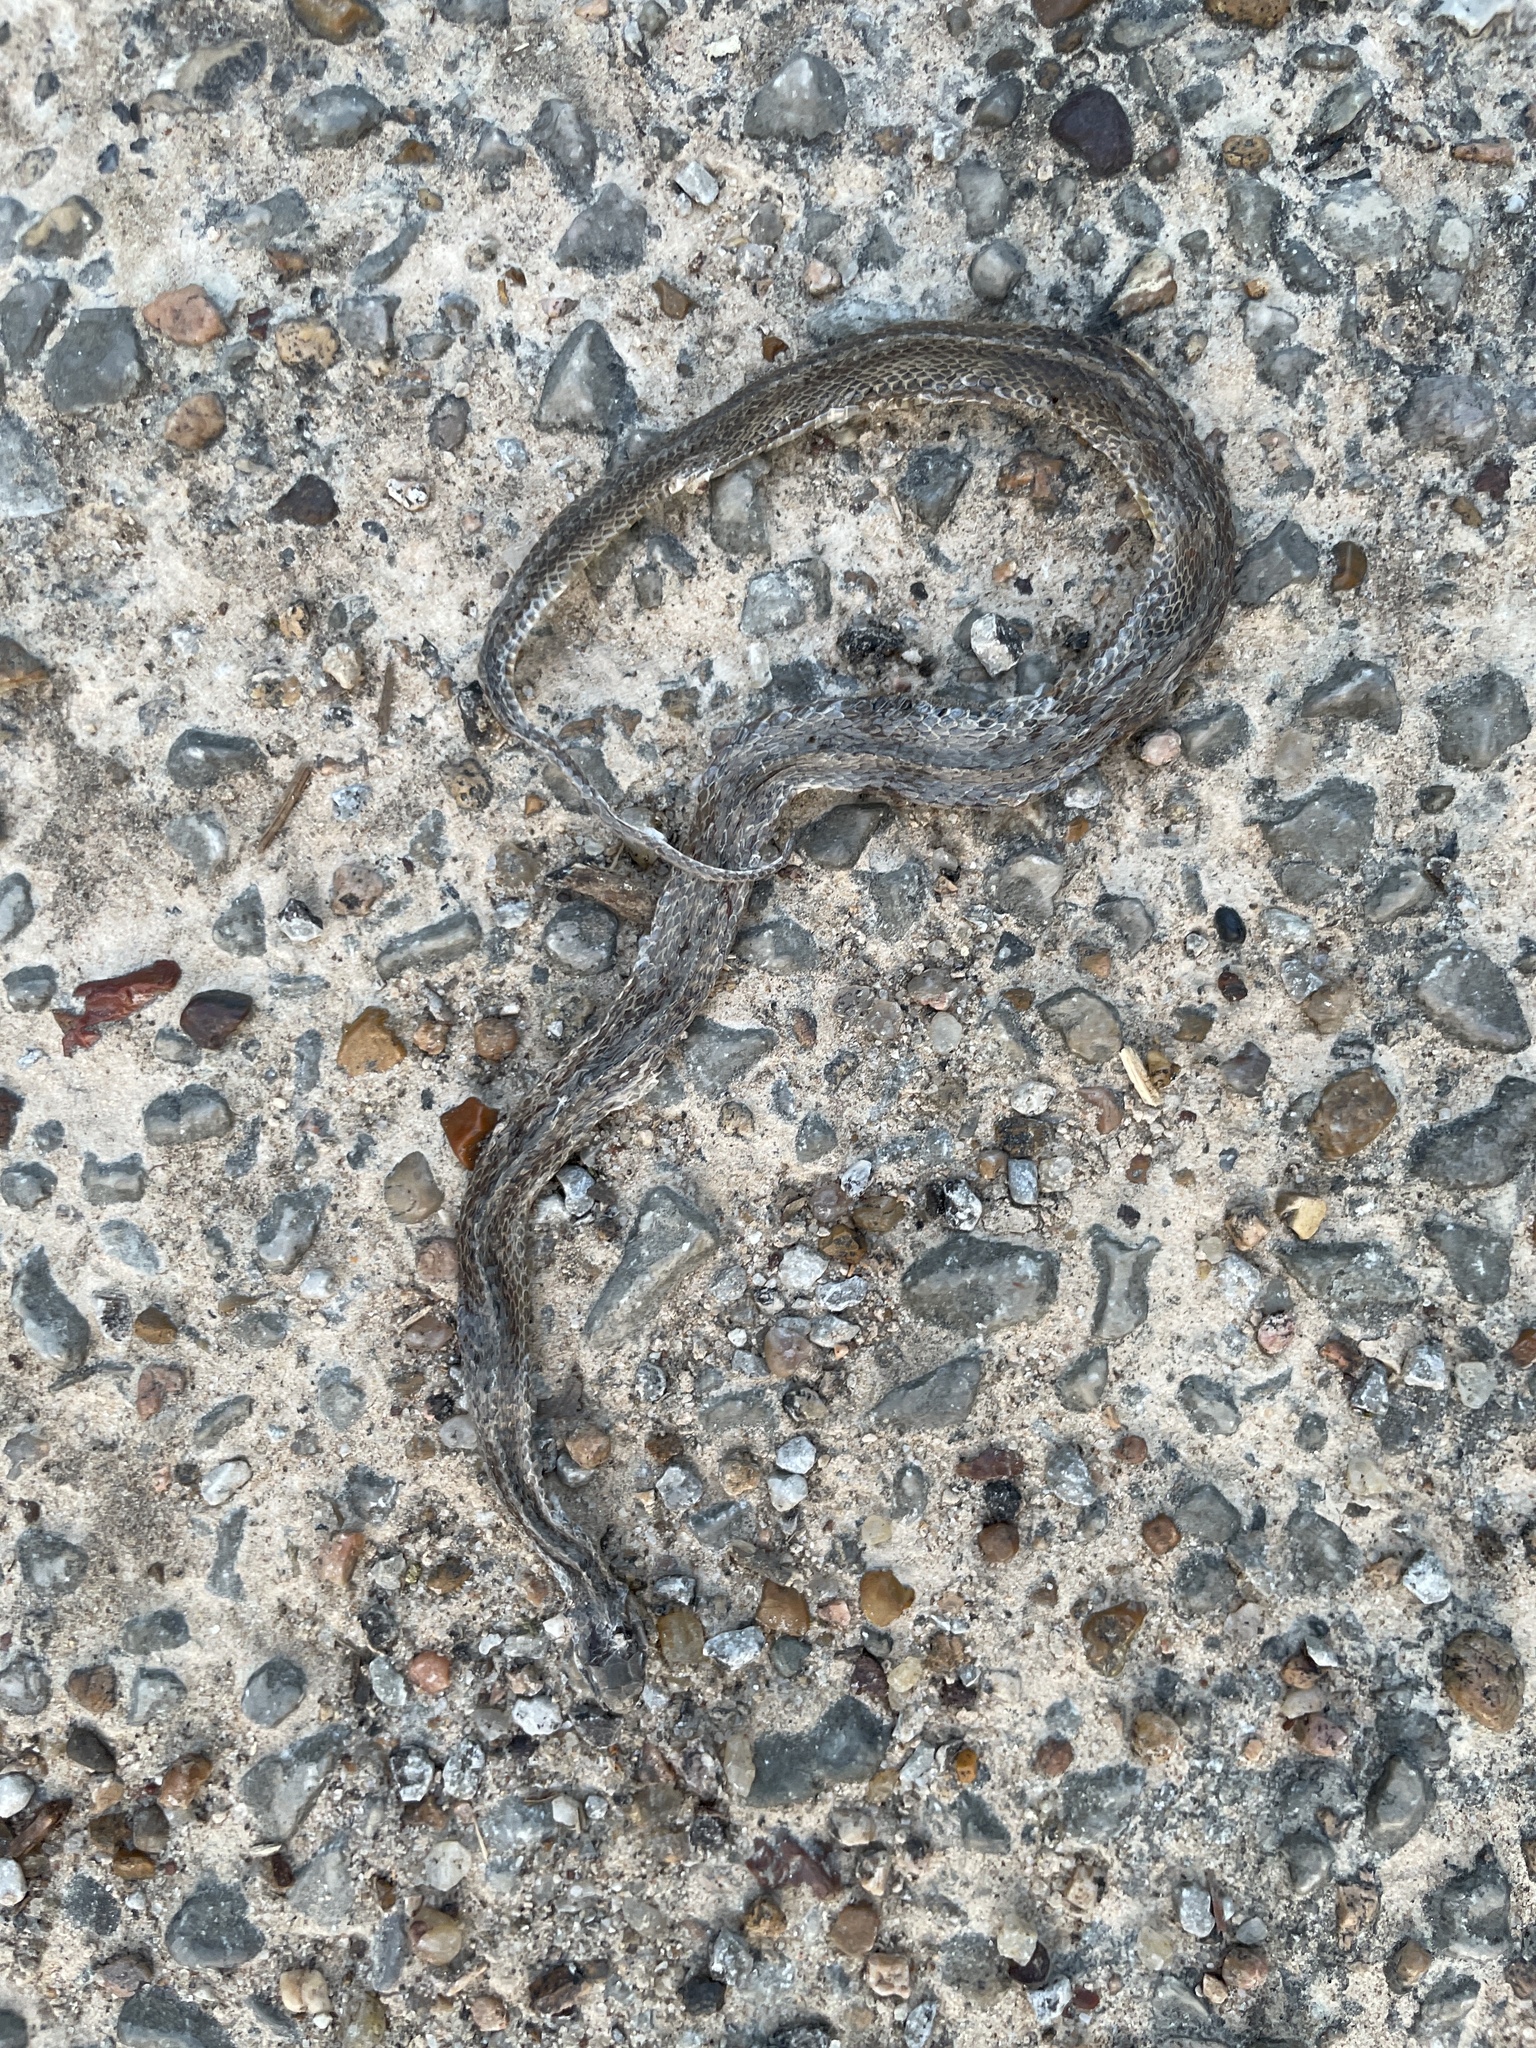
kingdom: Animalia
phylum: Chordata
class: Squamata
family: Colubridae
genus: Storeria
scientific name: Storeria dekayi
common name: (dekay’s) brown snake
